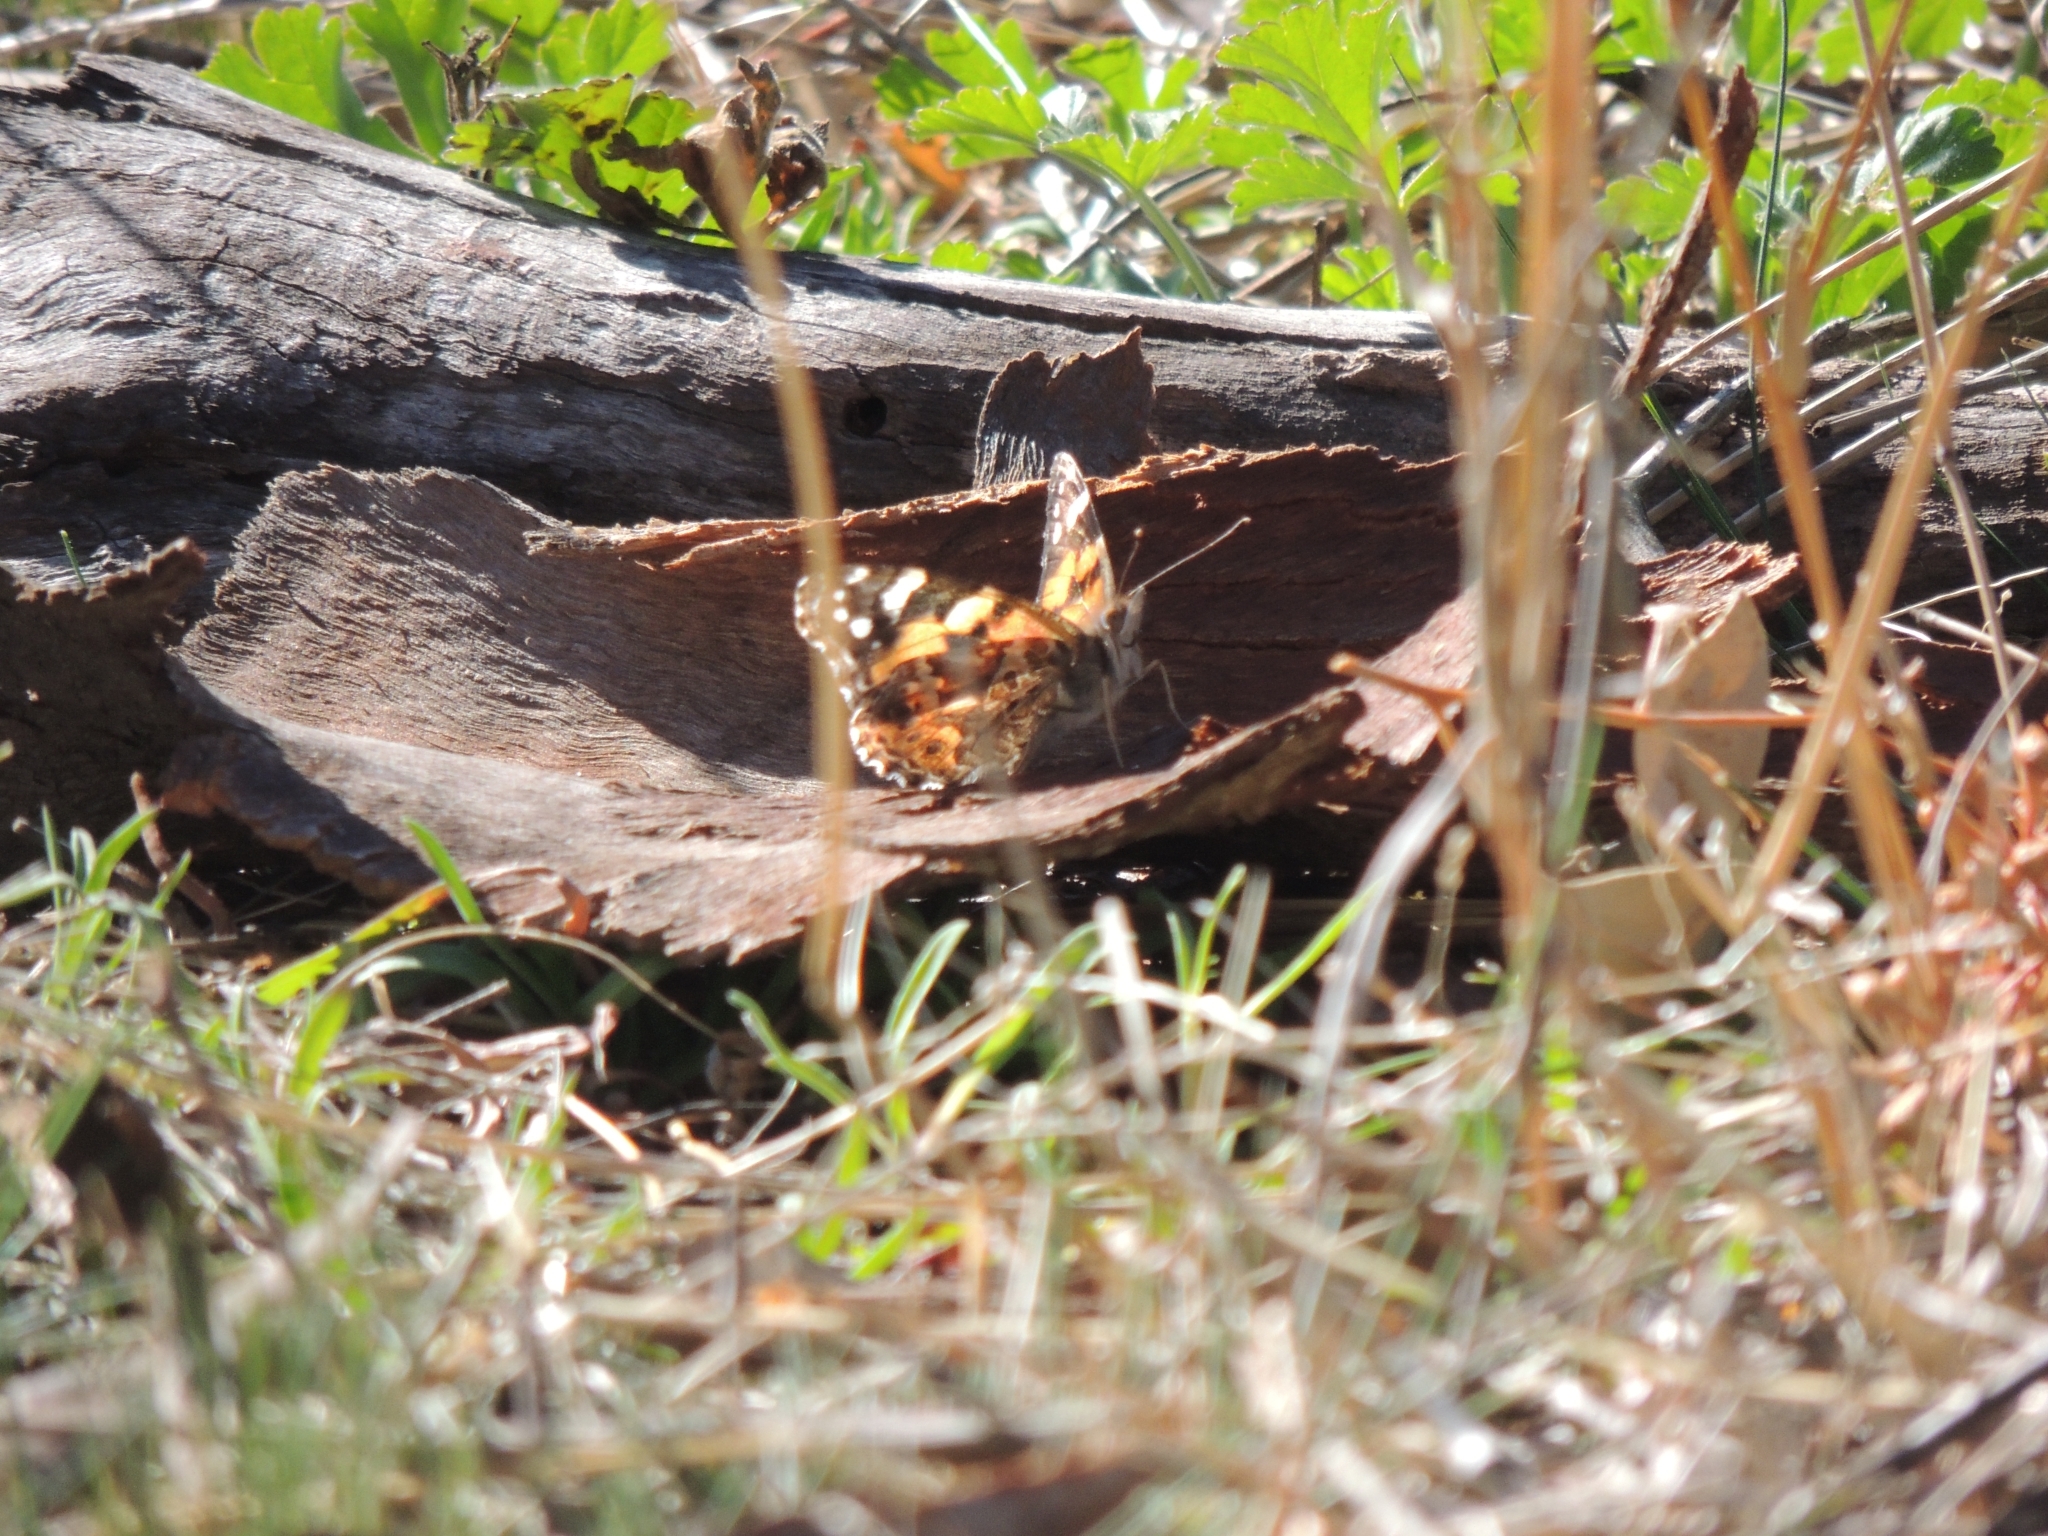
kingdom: Animalia
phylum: Arthropoda
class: Insecta
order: Lepidoptera
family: Nymphalidae
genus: Vanessa
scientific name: Vanessa kershawi
